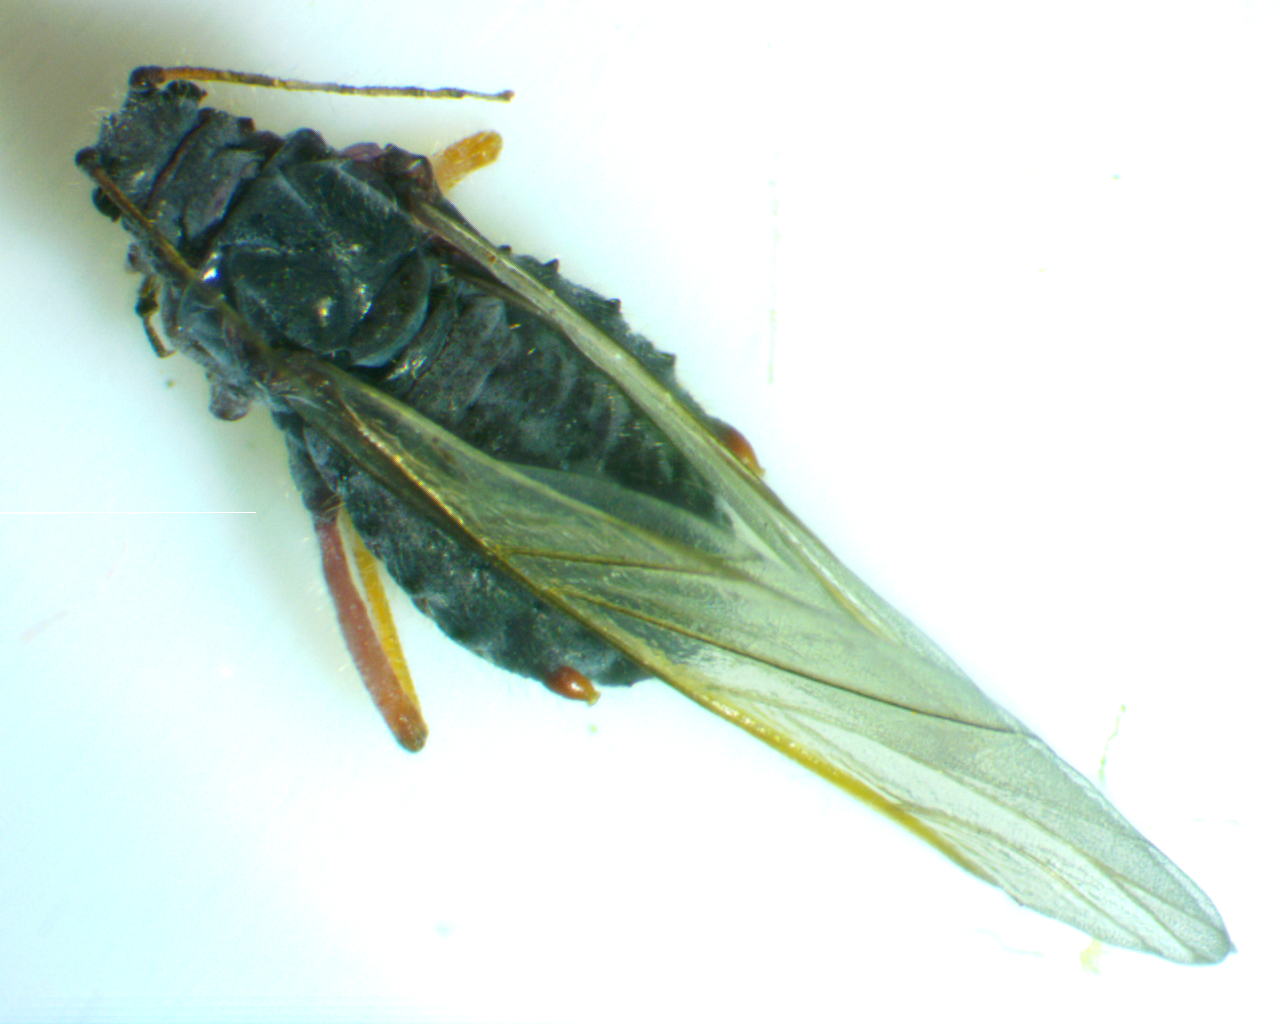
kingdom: Animalia
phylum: Arthropoda
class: Insecta
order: Hemiptera
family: Aphididae
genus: Pterocomma
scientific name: Pterocomma smithiae
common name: Black willow aphid
